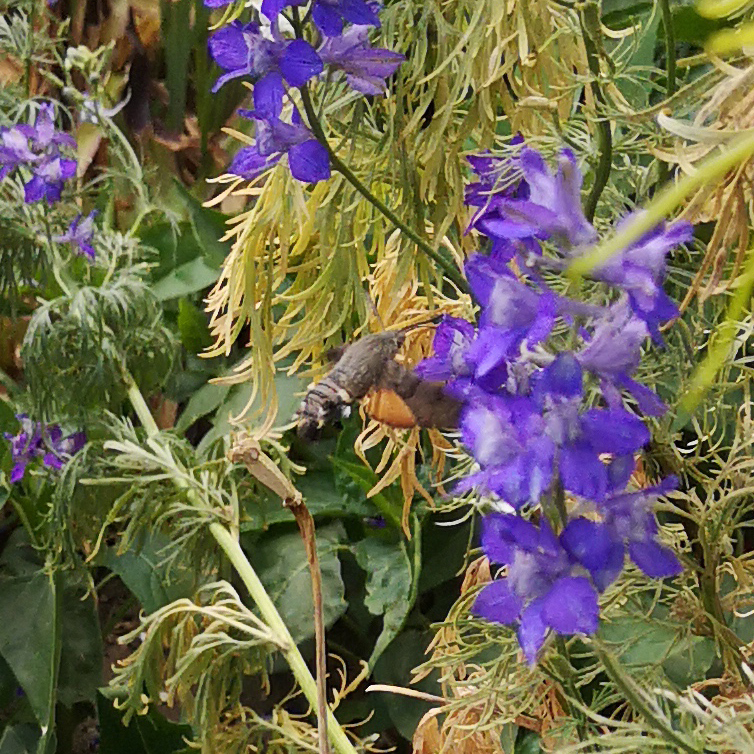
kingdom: Animalia
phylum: Arthropoda
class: Insecta
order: Lepidoptera
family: Sphingidae
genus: Macroglossum
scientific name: Macroglossum stellatarum
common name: Humming-bird hawk-moth
